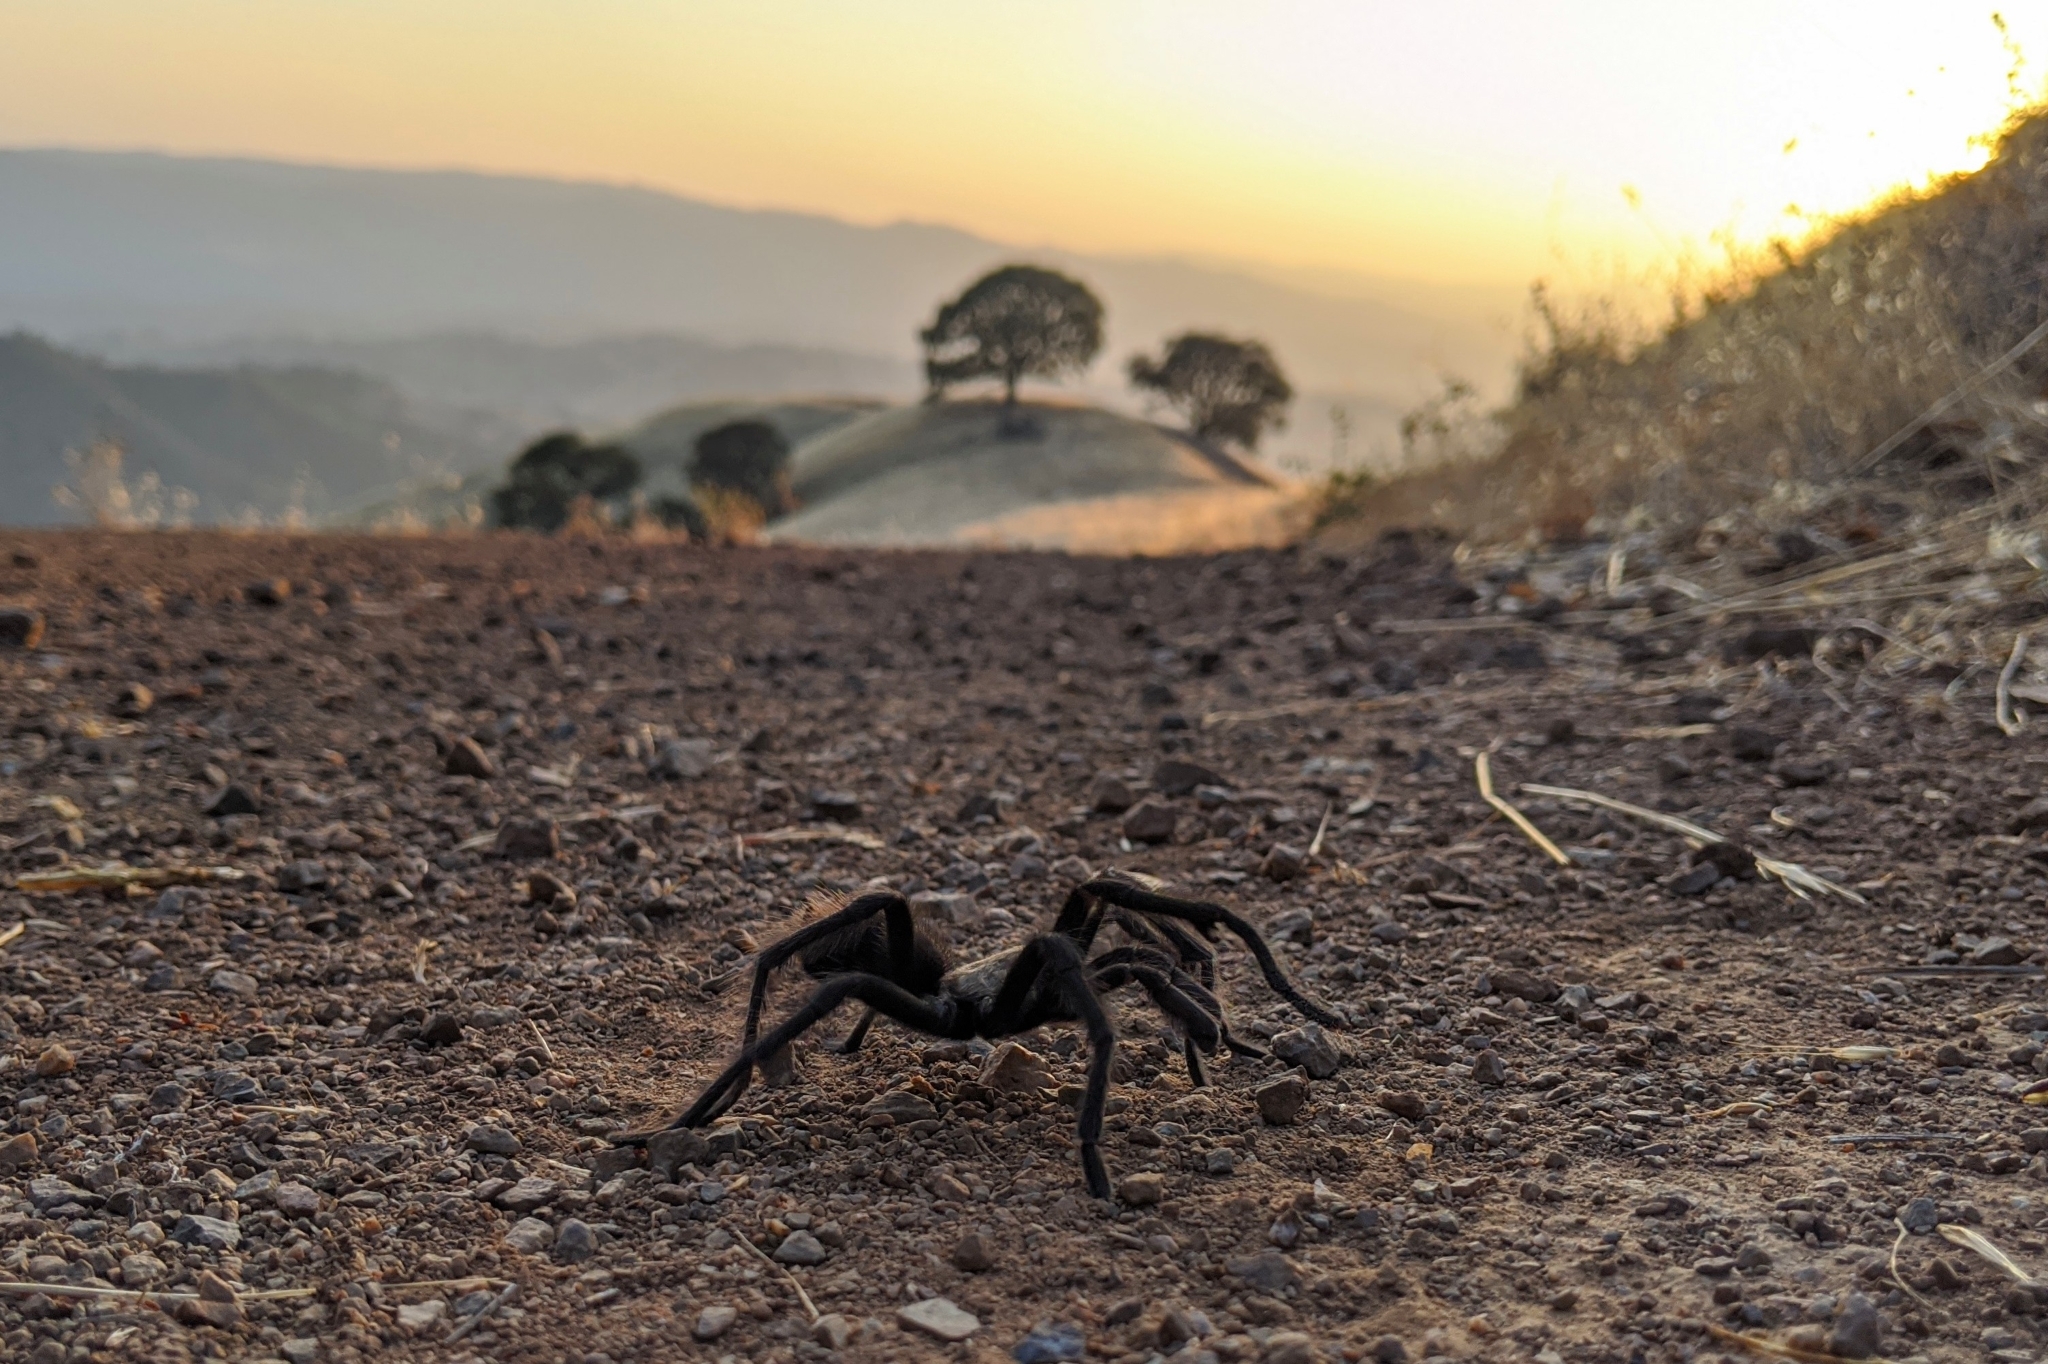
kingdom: Animalia
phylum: Arthropoda
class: Arachnida
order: Araneae
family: Theraphosidae
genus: Aphonopelma
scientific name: Aphonopelma iodius
